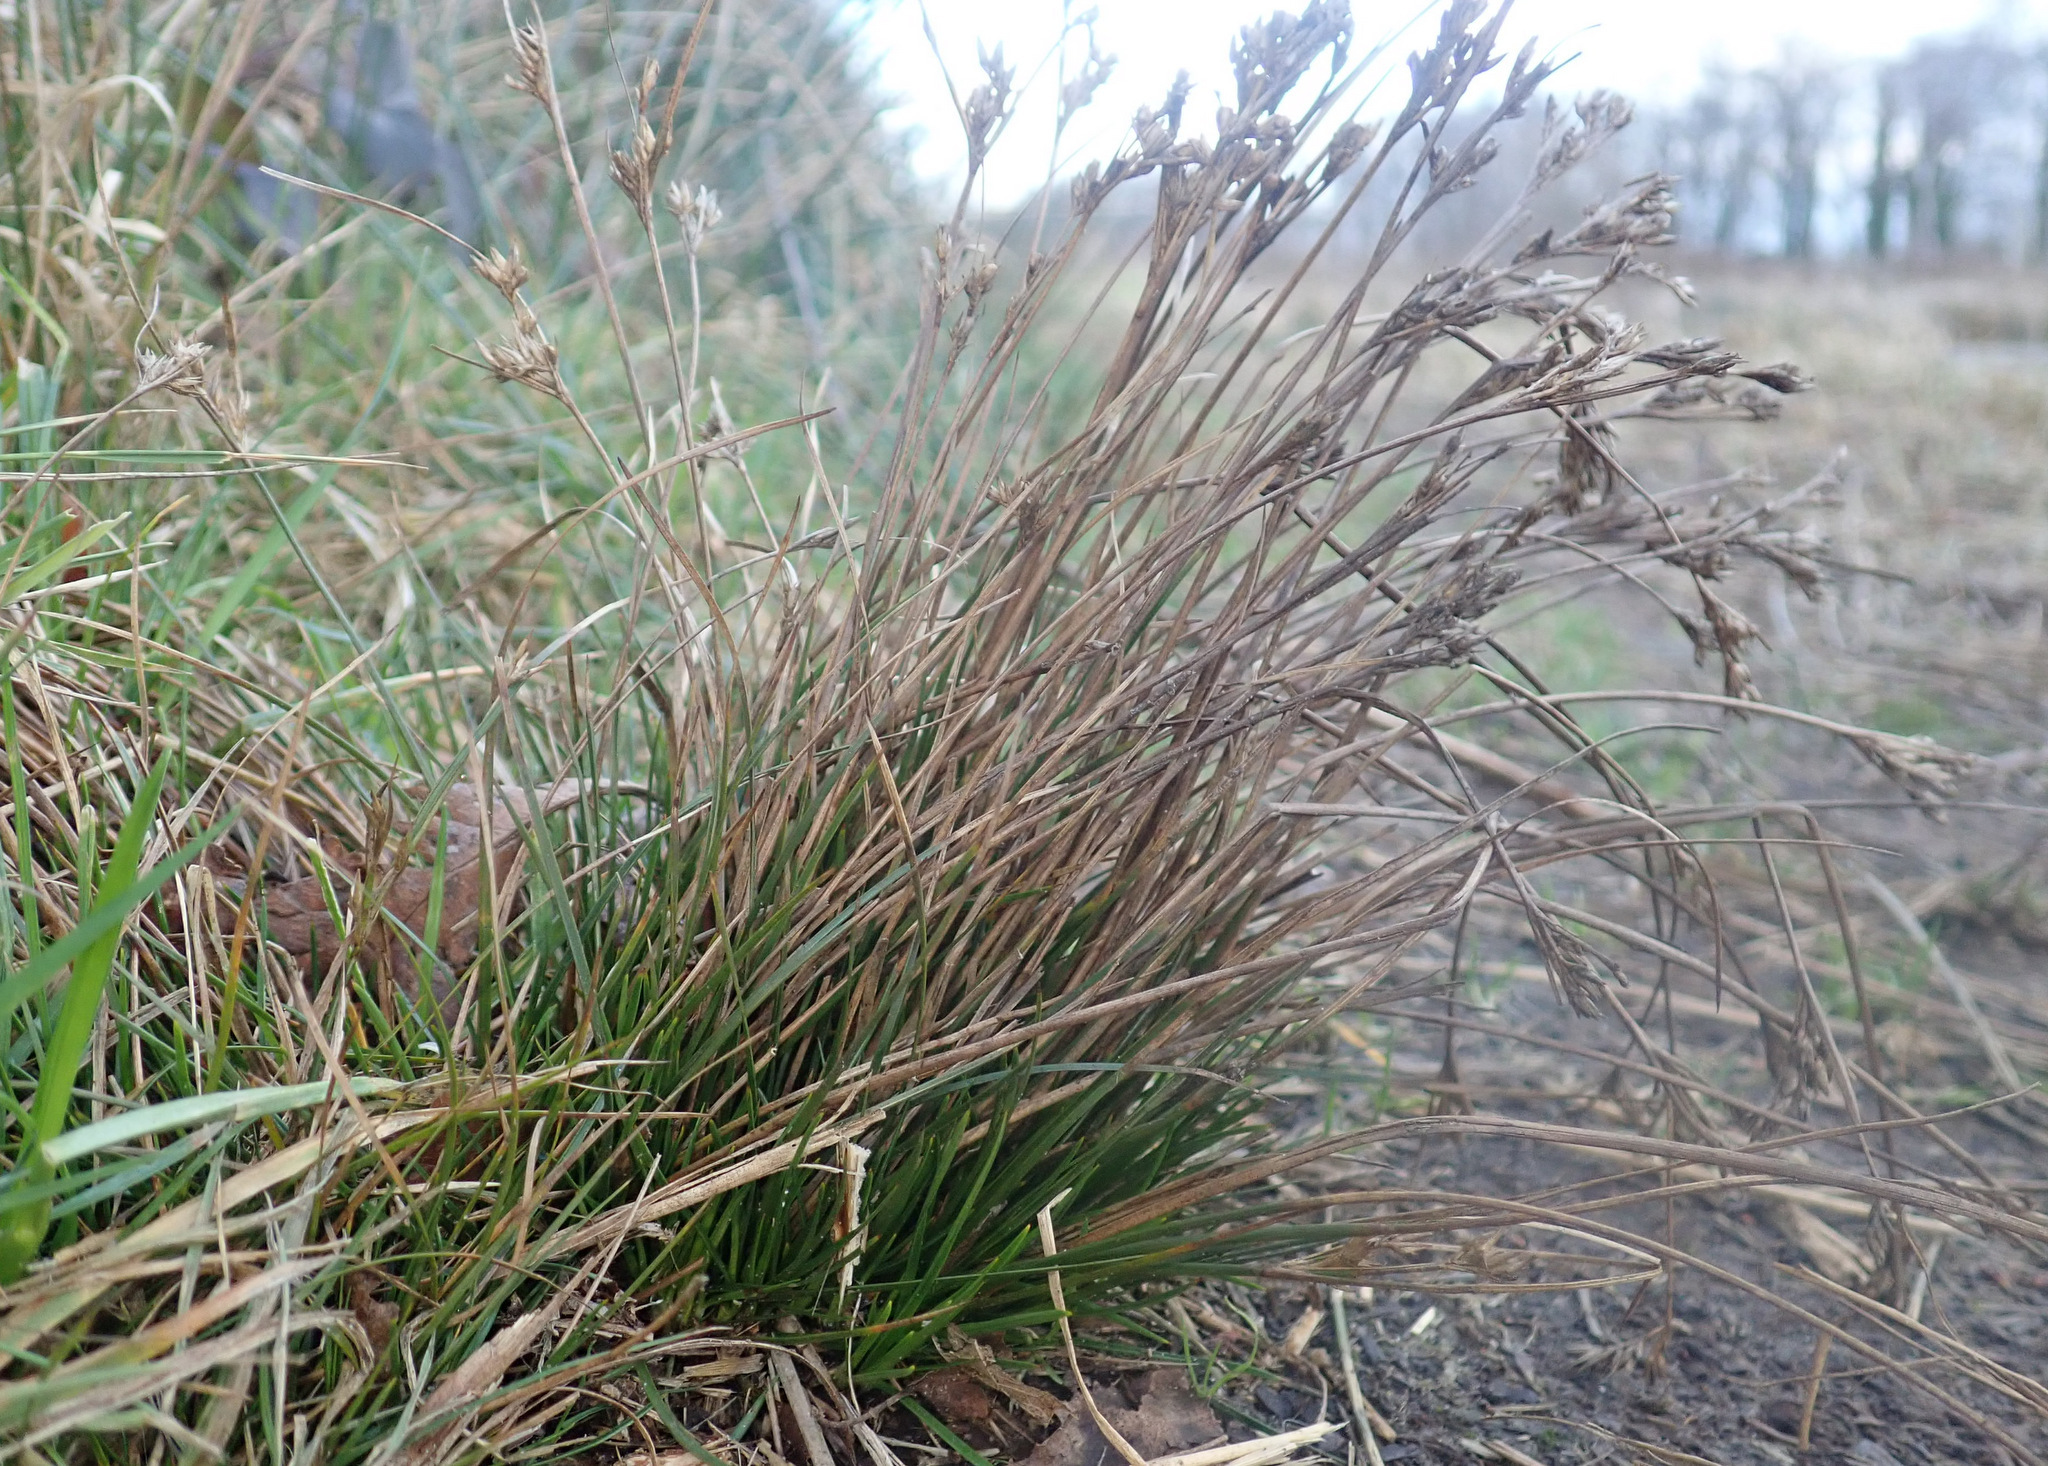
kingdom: Plantae
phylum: Tracheophyta
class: Liliopsida
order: Poales
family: Juncaceae
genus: Juncus
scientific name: Juncus squarrosus
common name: Heath rush
